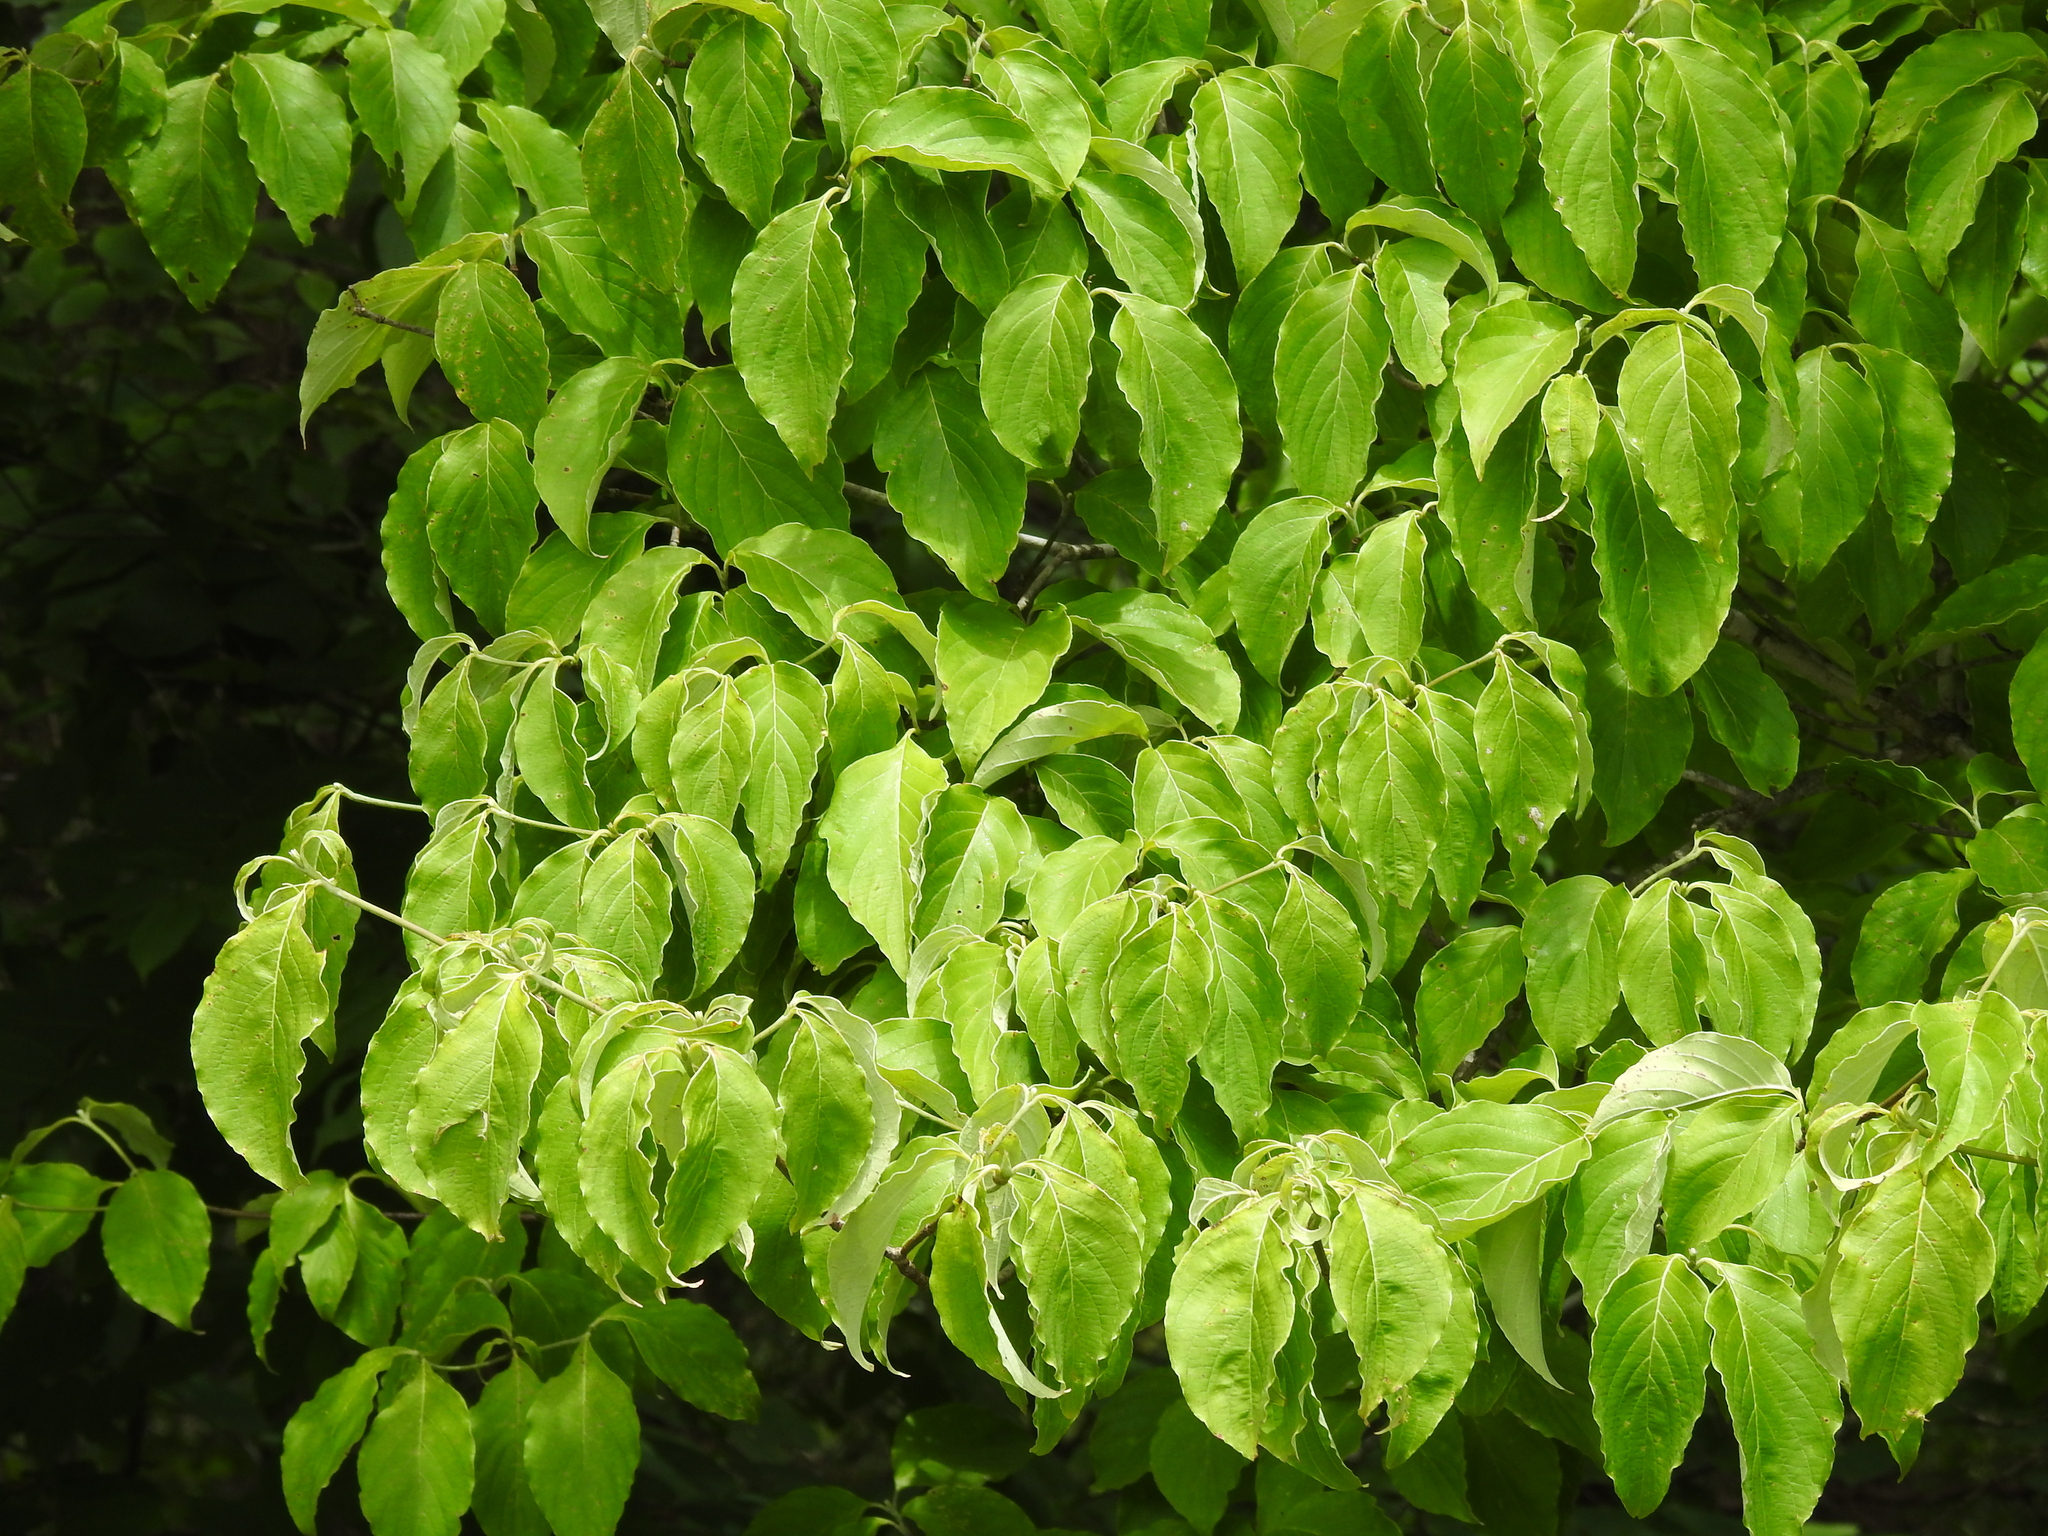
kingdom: Plantae
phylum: Tracheophyta
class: Magnoliopsida
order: Cornales
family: Cornaceae
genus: Cornus
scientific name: Cornus florida
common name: Flowering dogwood
